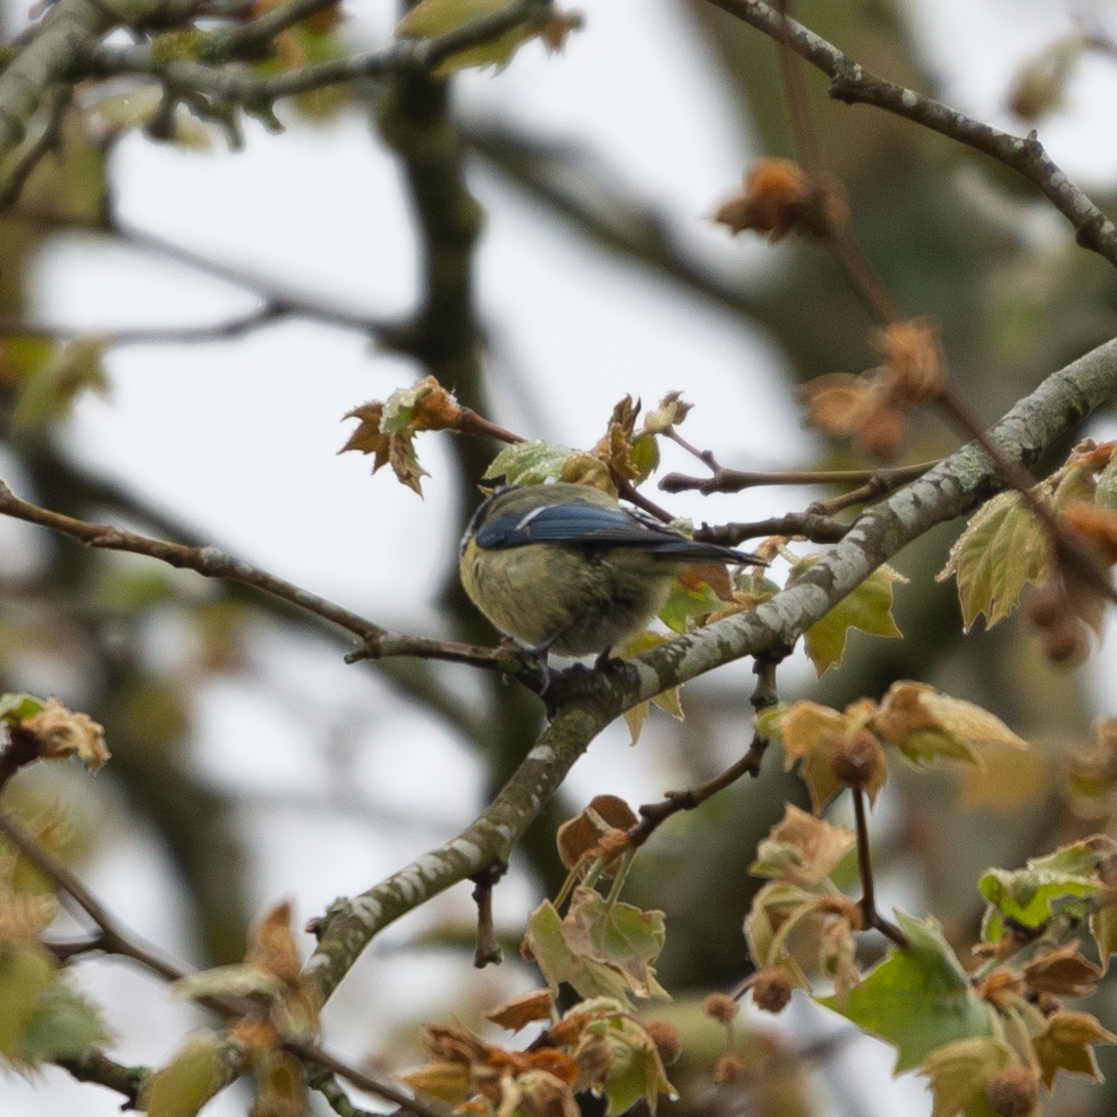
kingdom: Animalia
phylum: Chordata
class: Aves
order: Passeriformes
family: Paridae
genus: Cyanistes
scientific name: Cyanistes caeruleus
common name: Eurasian blue tit
